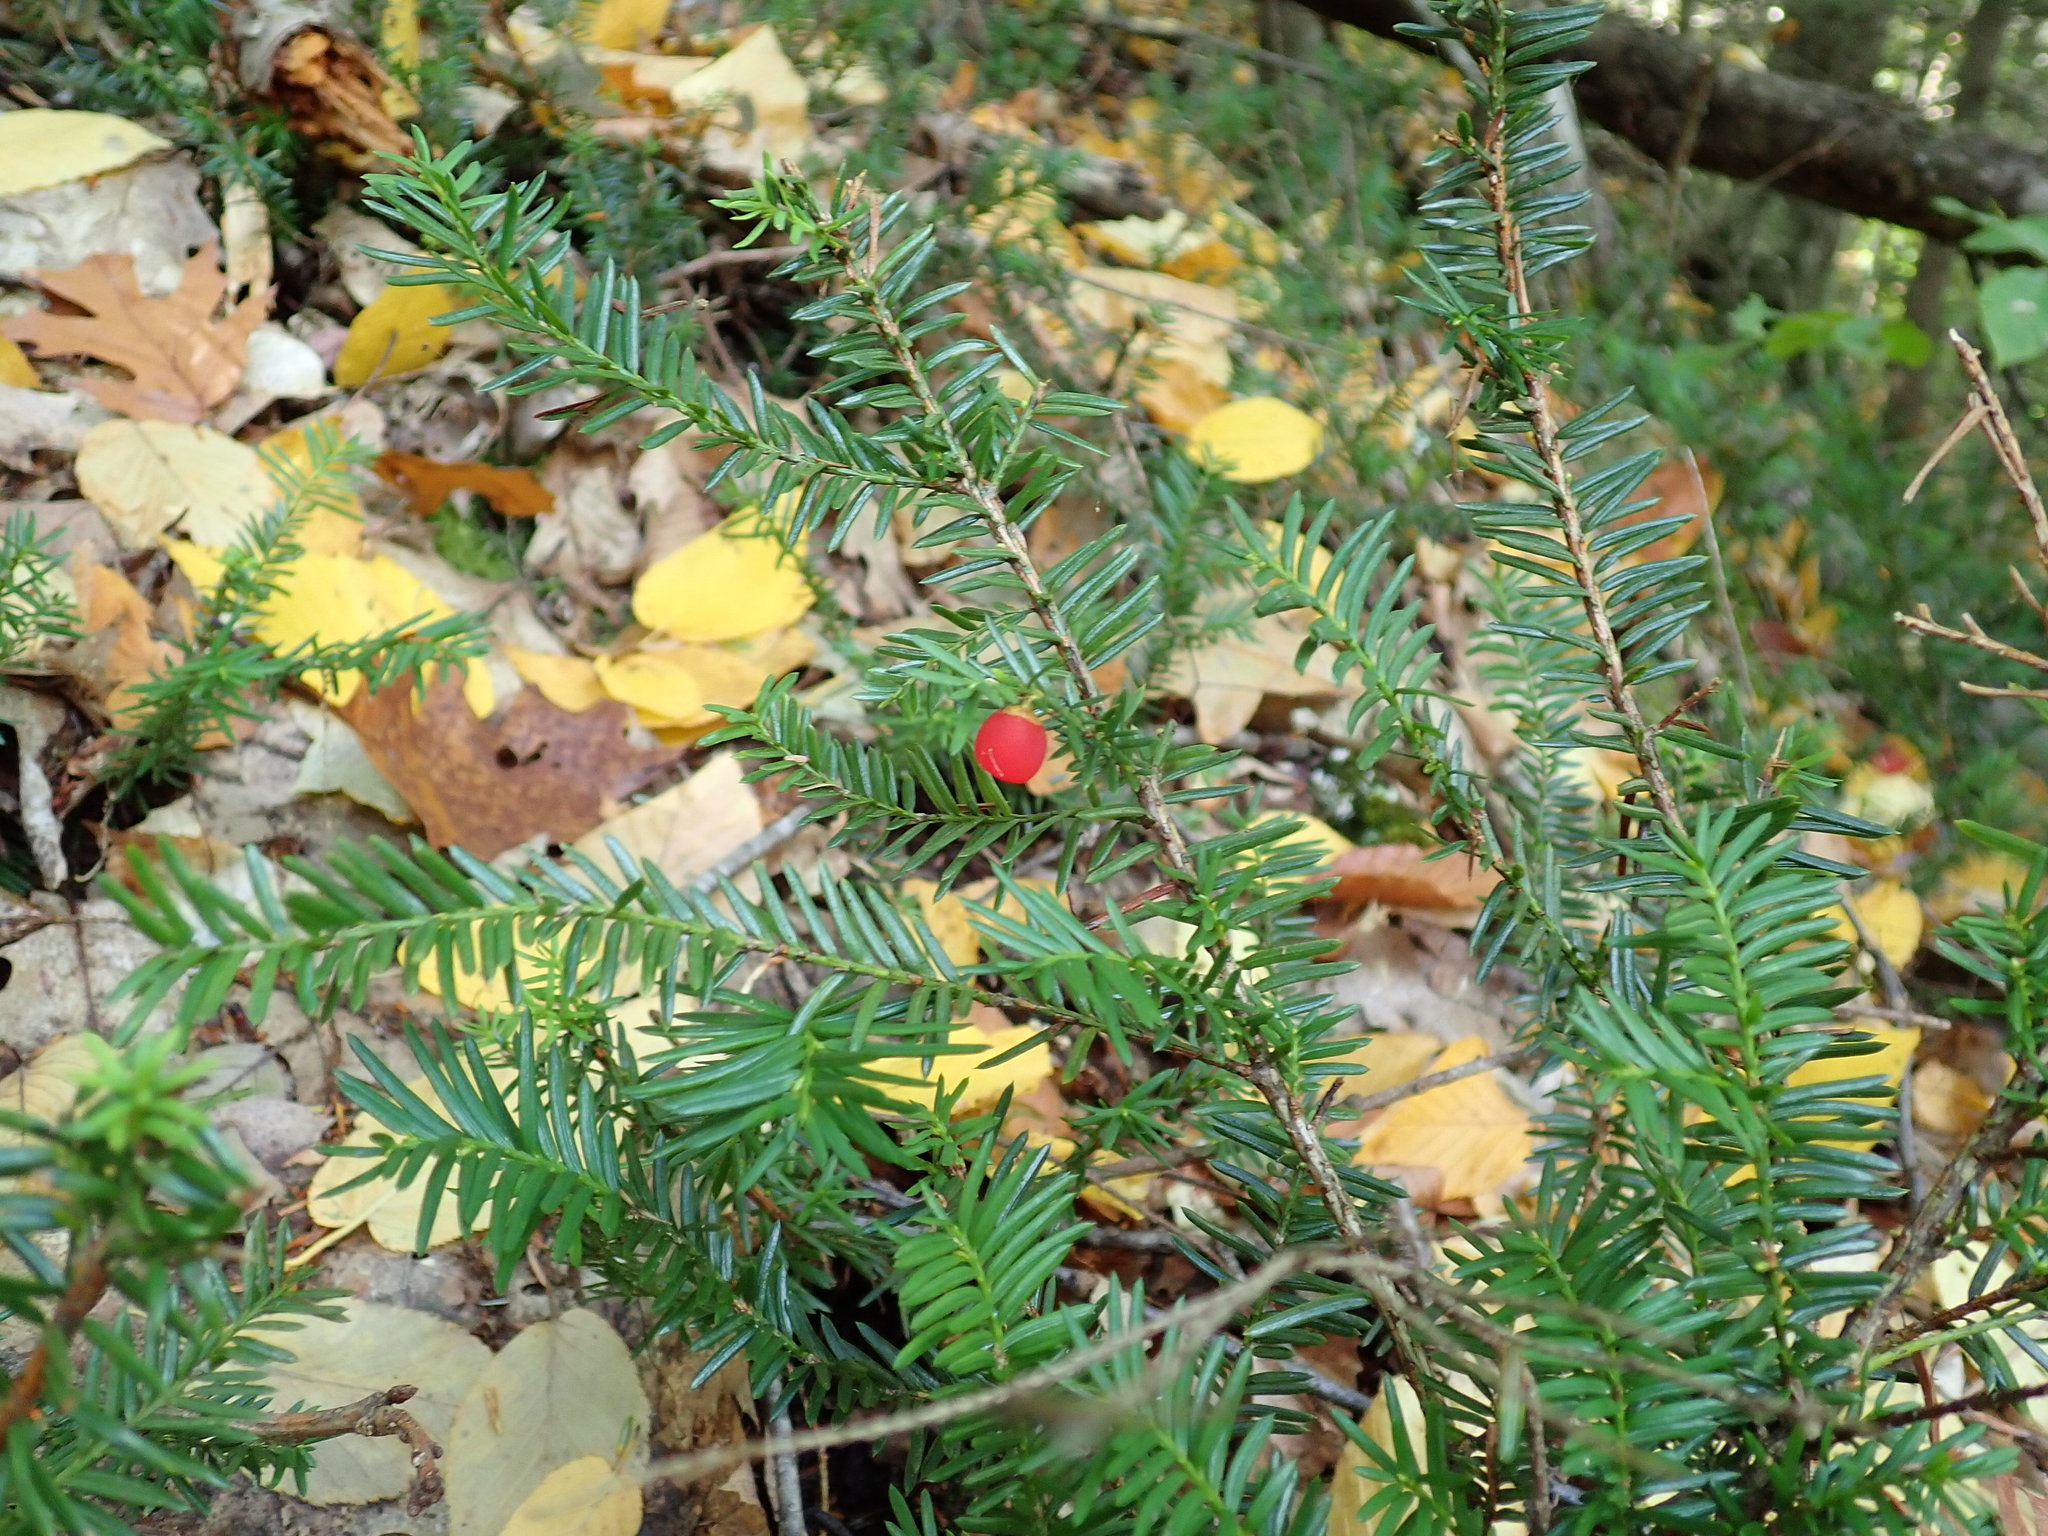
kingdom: Plantae
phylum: Tracheophyta
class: Pinopsida
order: Pinales
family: Taxaceae
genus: Taxus
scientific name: Taxus canadensis
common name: American yew
